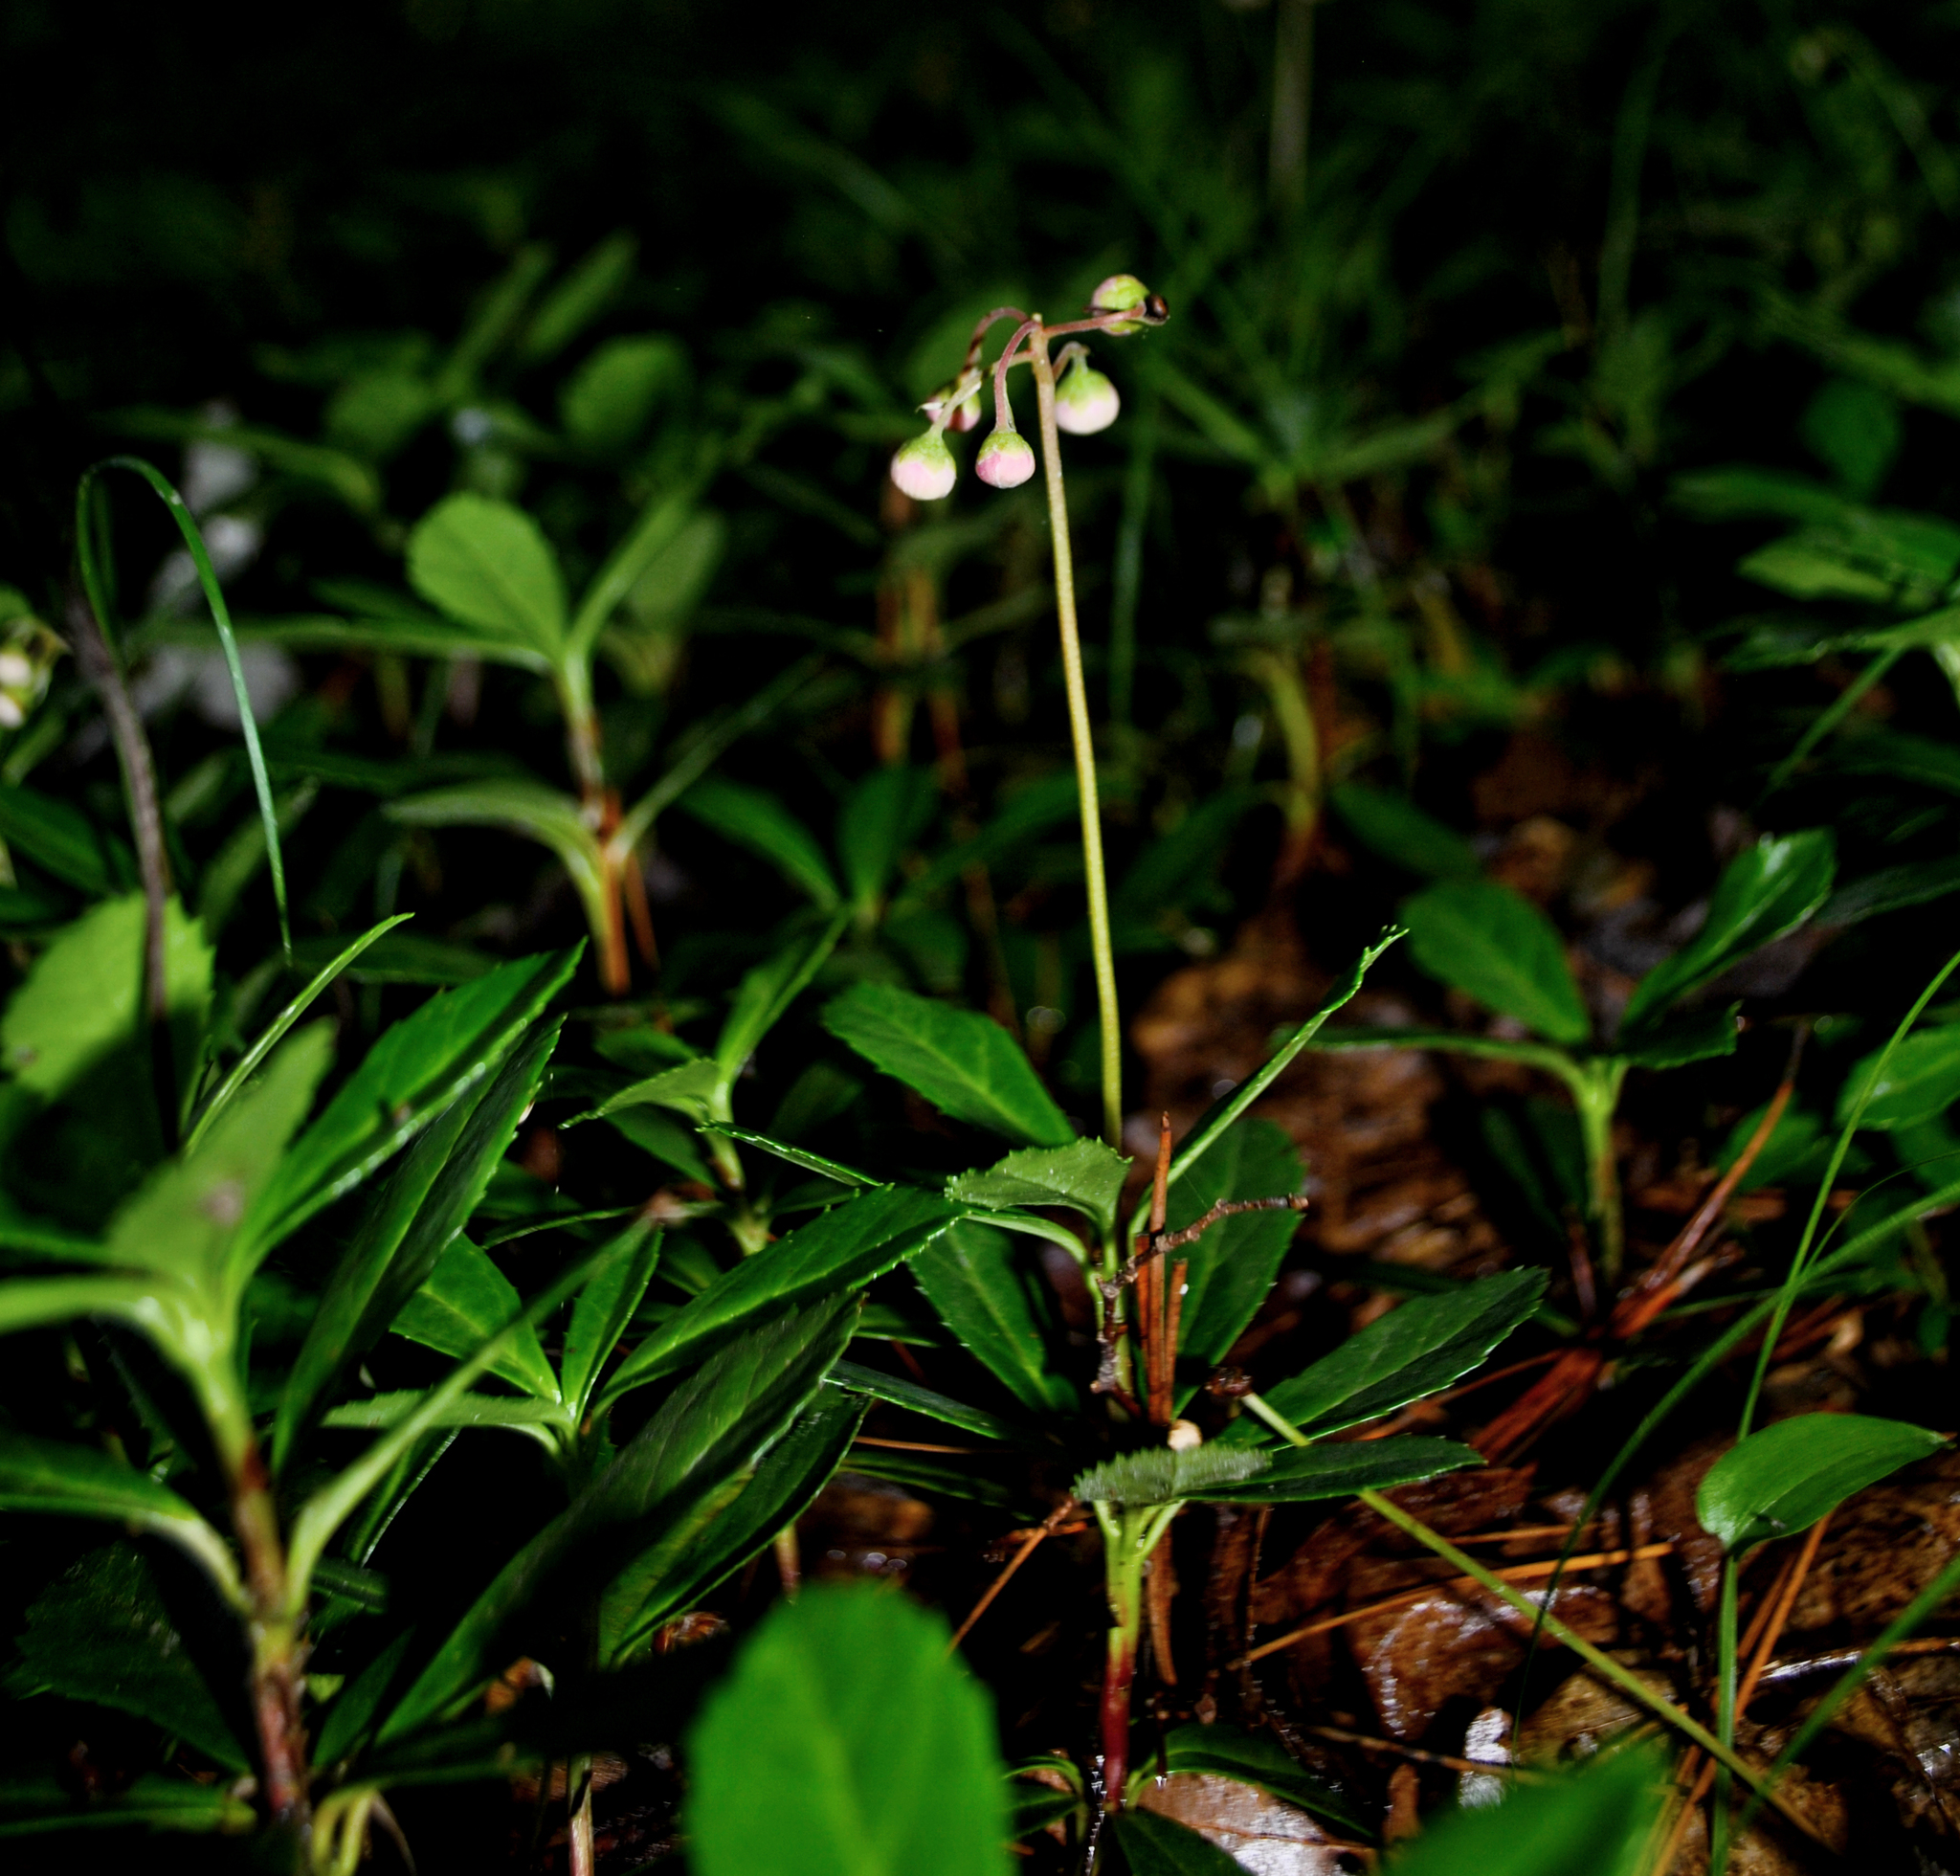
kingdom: Plantae
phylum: Tracheophyta
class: Magnoliopsida
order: Ericales
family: Ericaceae
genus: Chimaphila
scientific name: Chimaphila umbellata
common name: Pipsissewa
